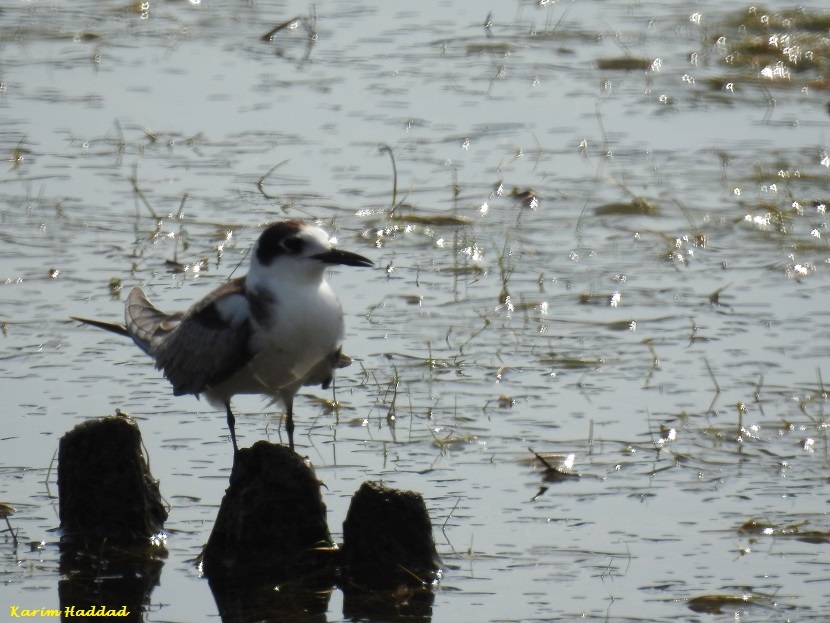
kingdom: Animalia
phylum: Chordata
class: Aves
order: Charadriiformes
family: Laridae
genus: Chlidonias
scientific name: Chlidonias niger
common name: Black tern
